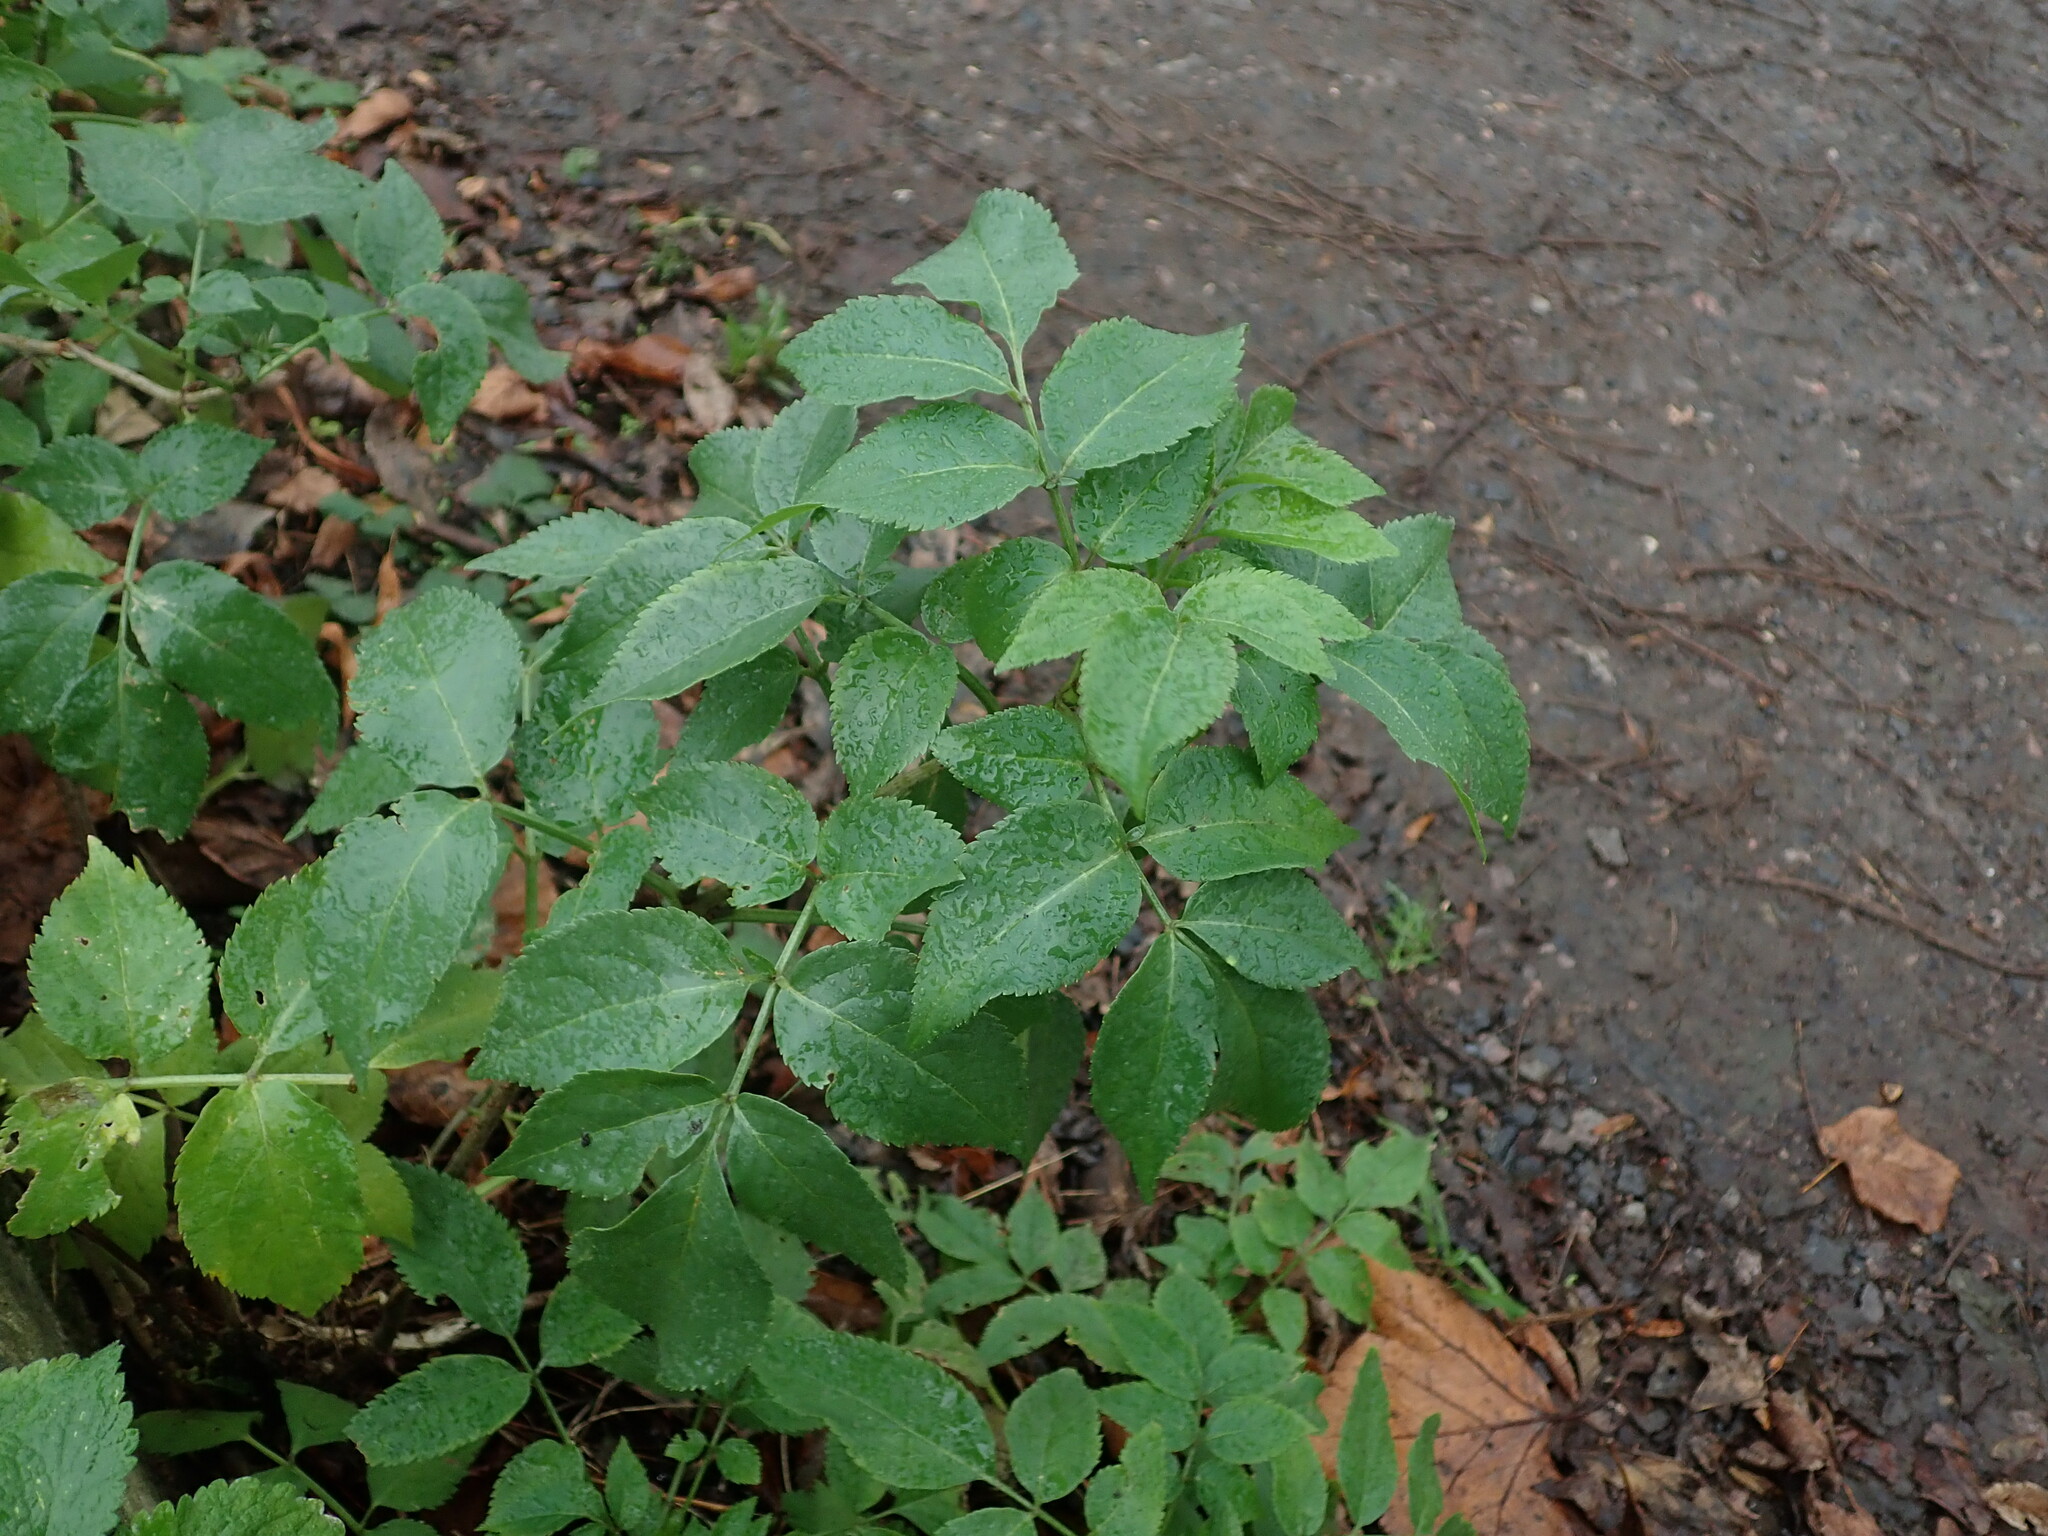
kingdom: Plantae
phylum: Tracheophyta
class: Magnoliopsida
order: Dipsacales
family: Viburnaceae
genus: Sambucus
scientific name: Sambucus nigra
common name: Elder
